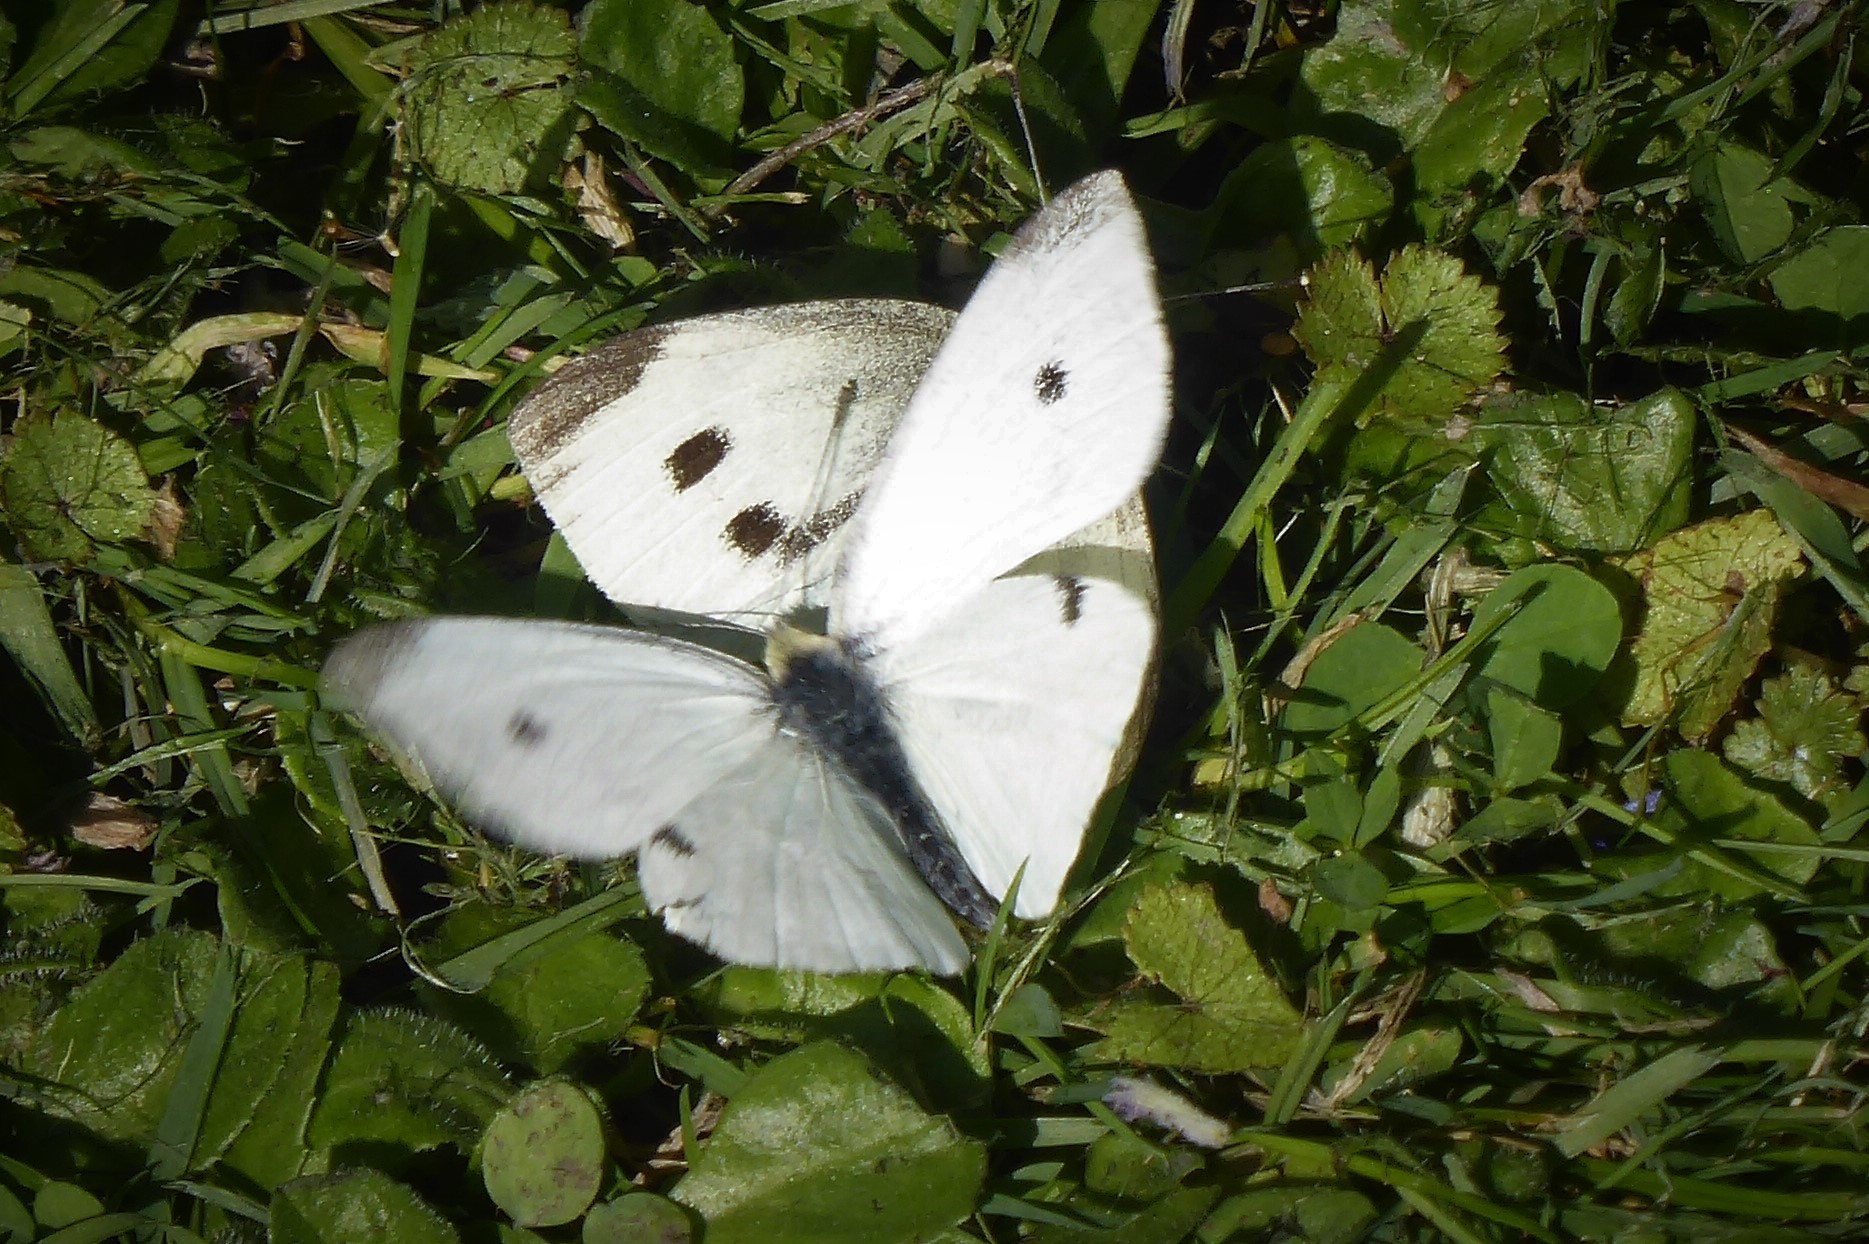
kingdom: Animalia
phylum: Arthropoda
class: Insecta
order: Lepidoptera
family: Pieridae
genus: Pieris
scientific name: Pieris rapae
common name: Small white
